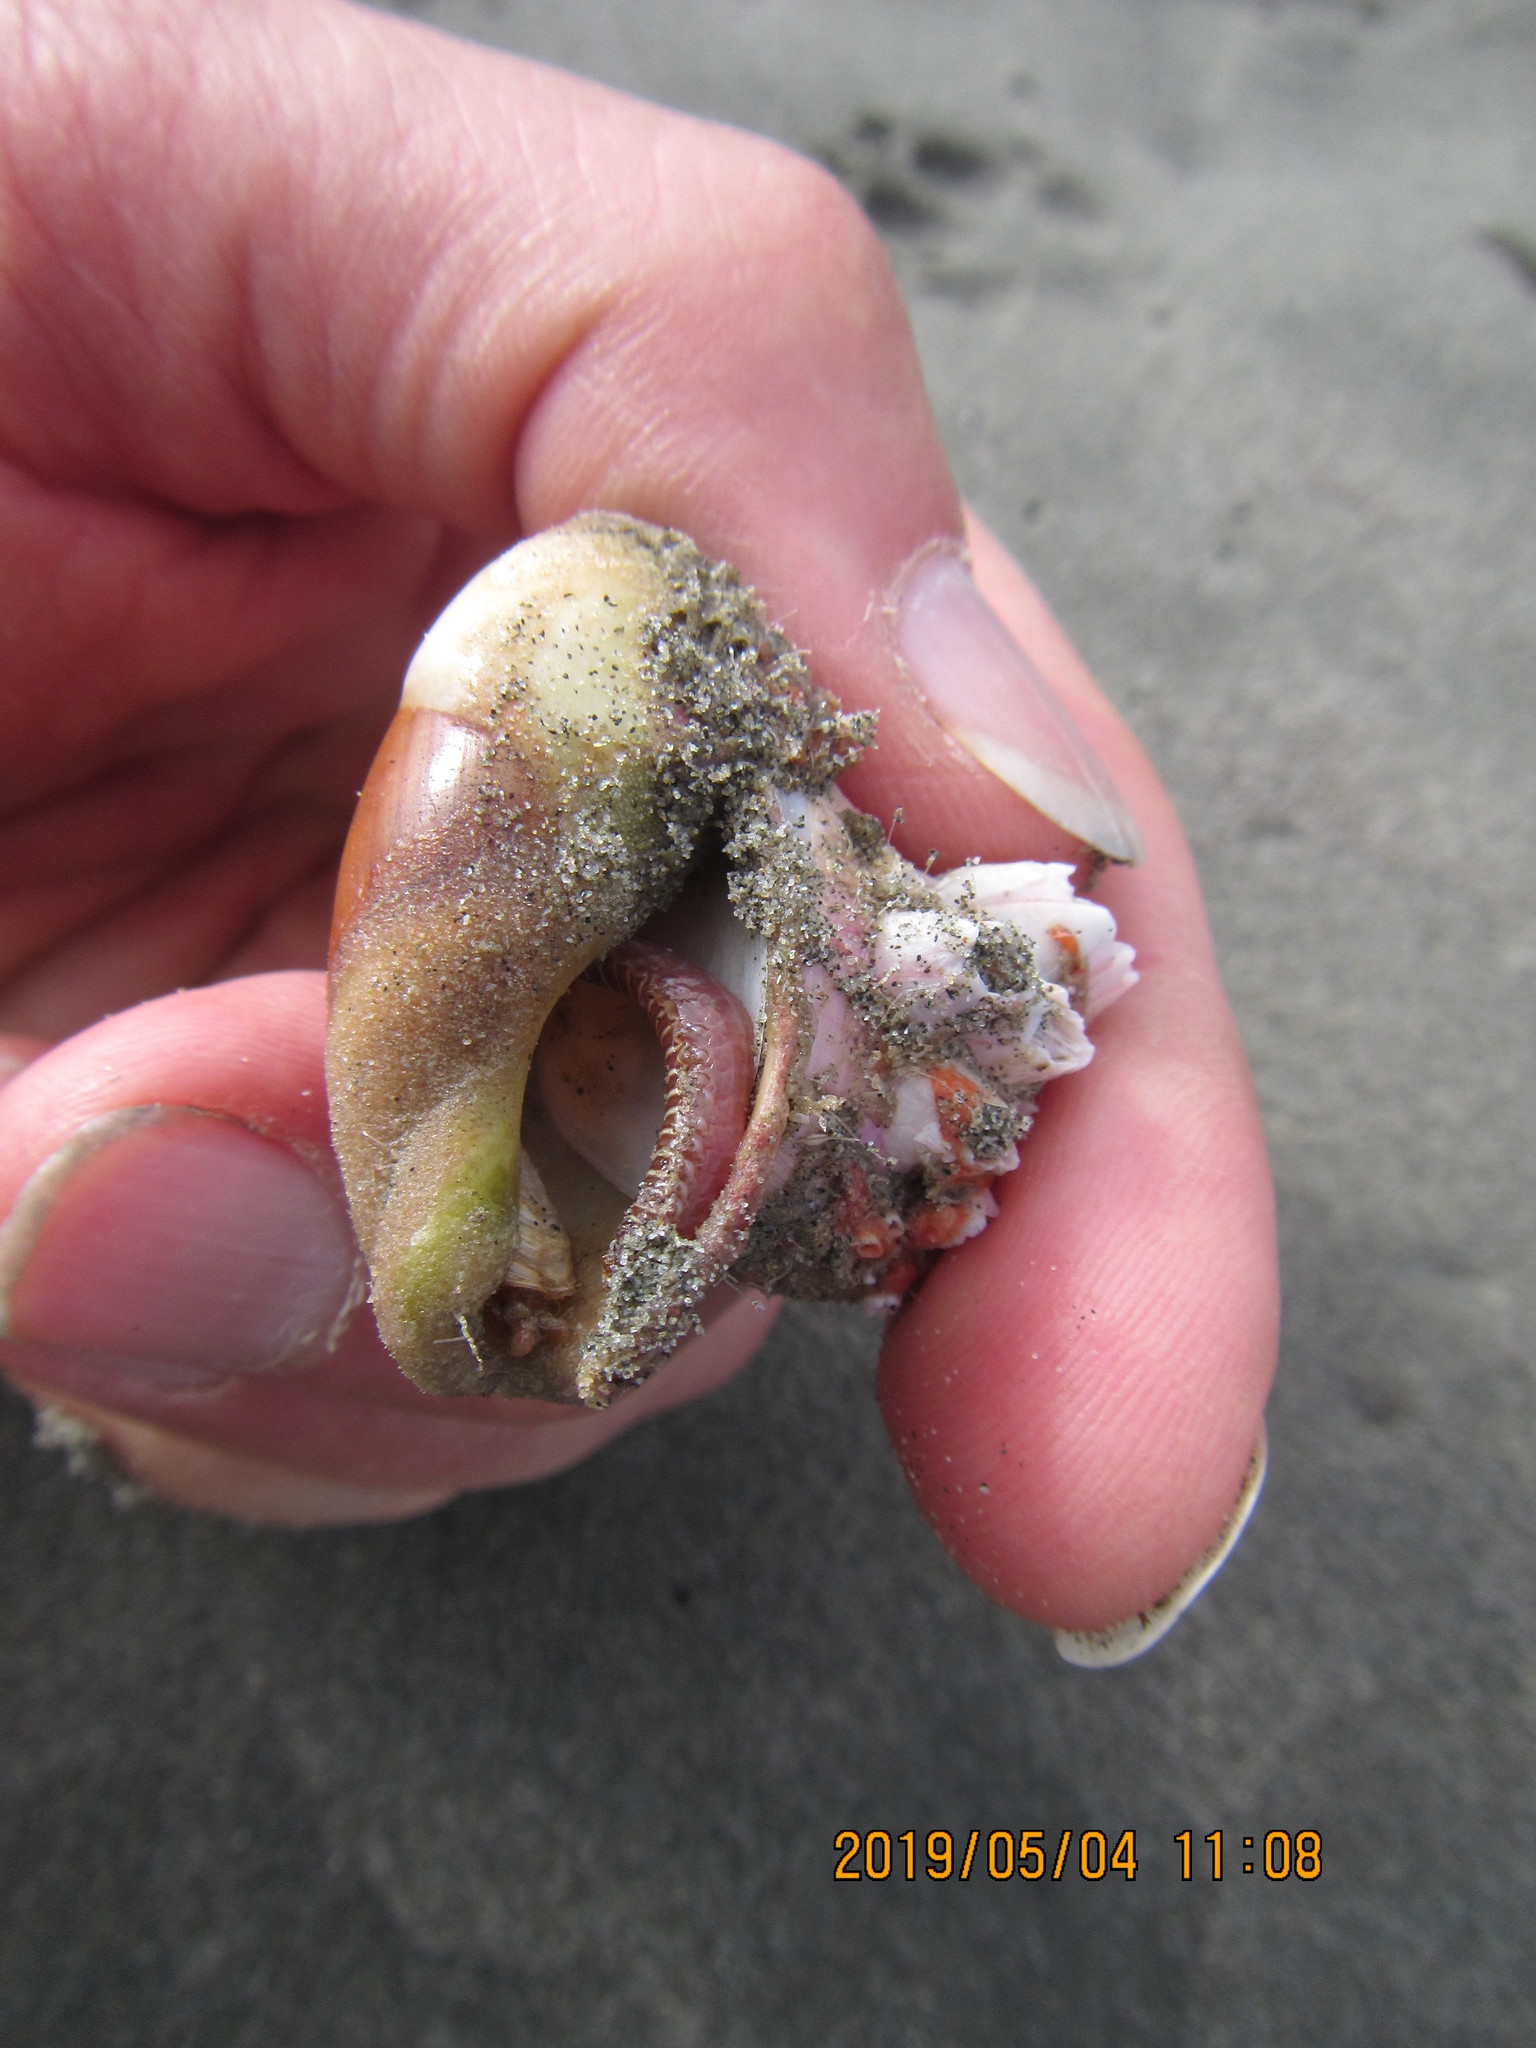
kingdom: Animalia
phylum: Mollusca
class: Gastropoda
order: Neogastropoda
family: Ancillariidae
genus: Amalda
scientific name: Amalda mucronata
